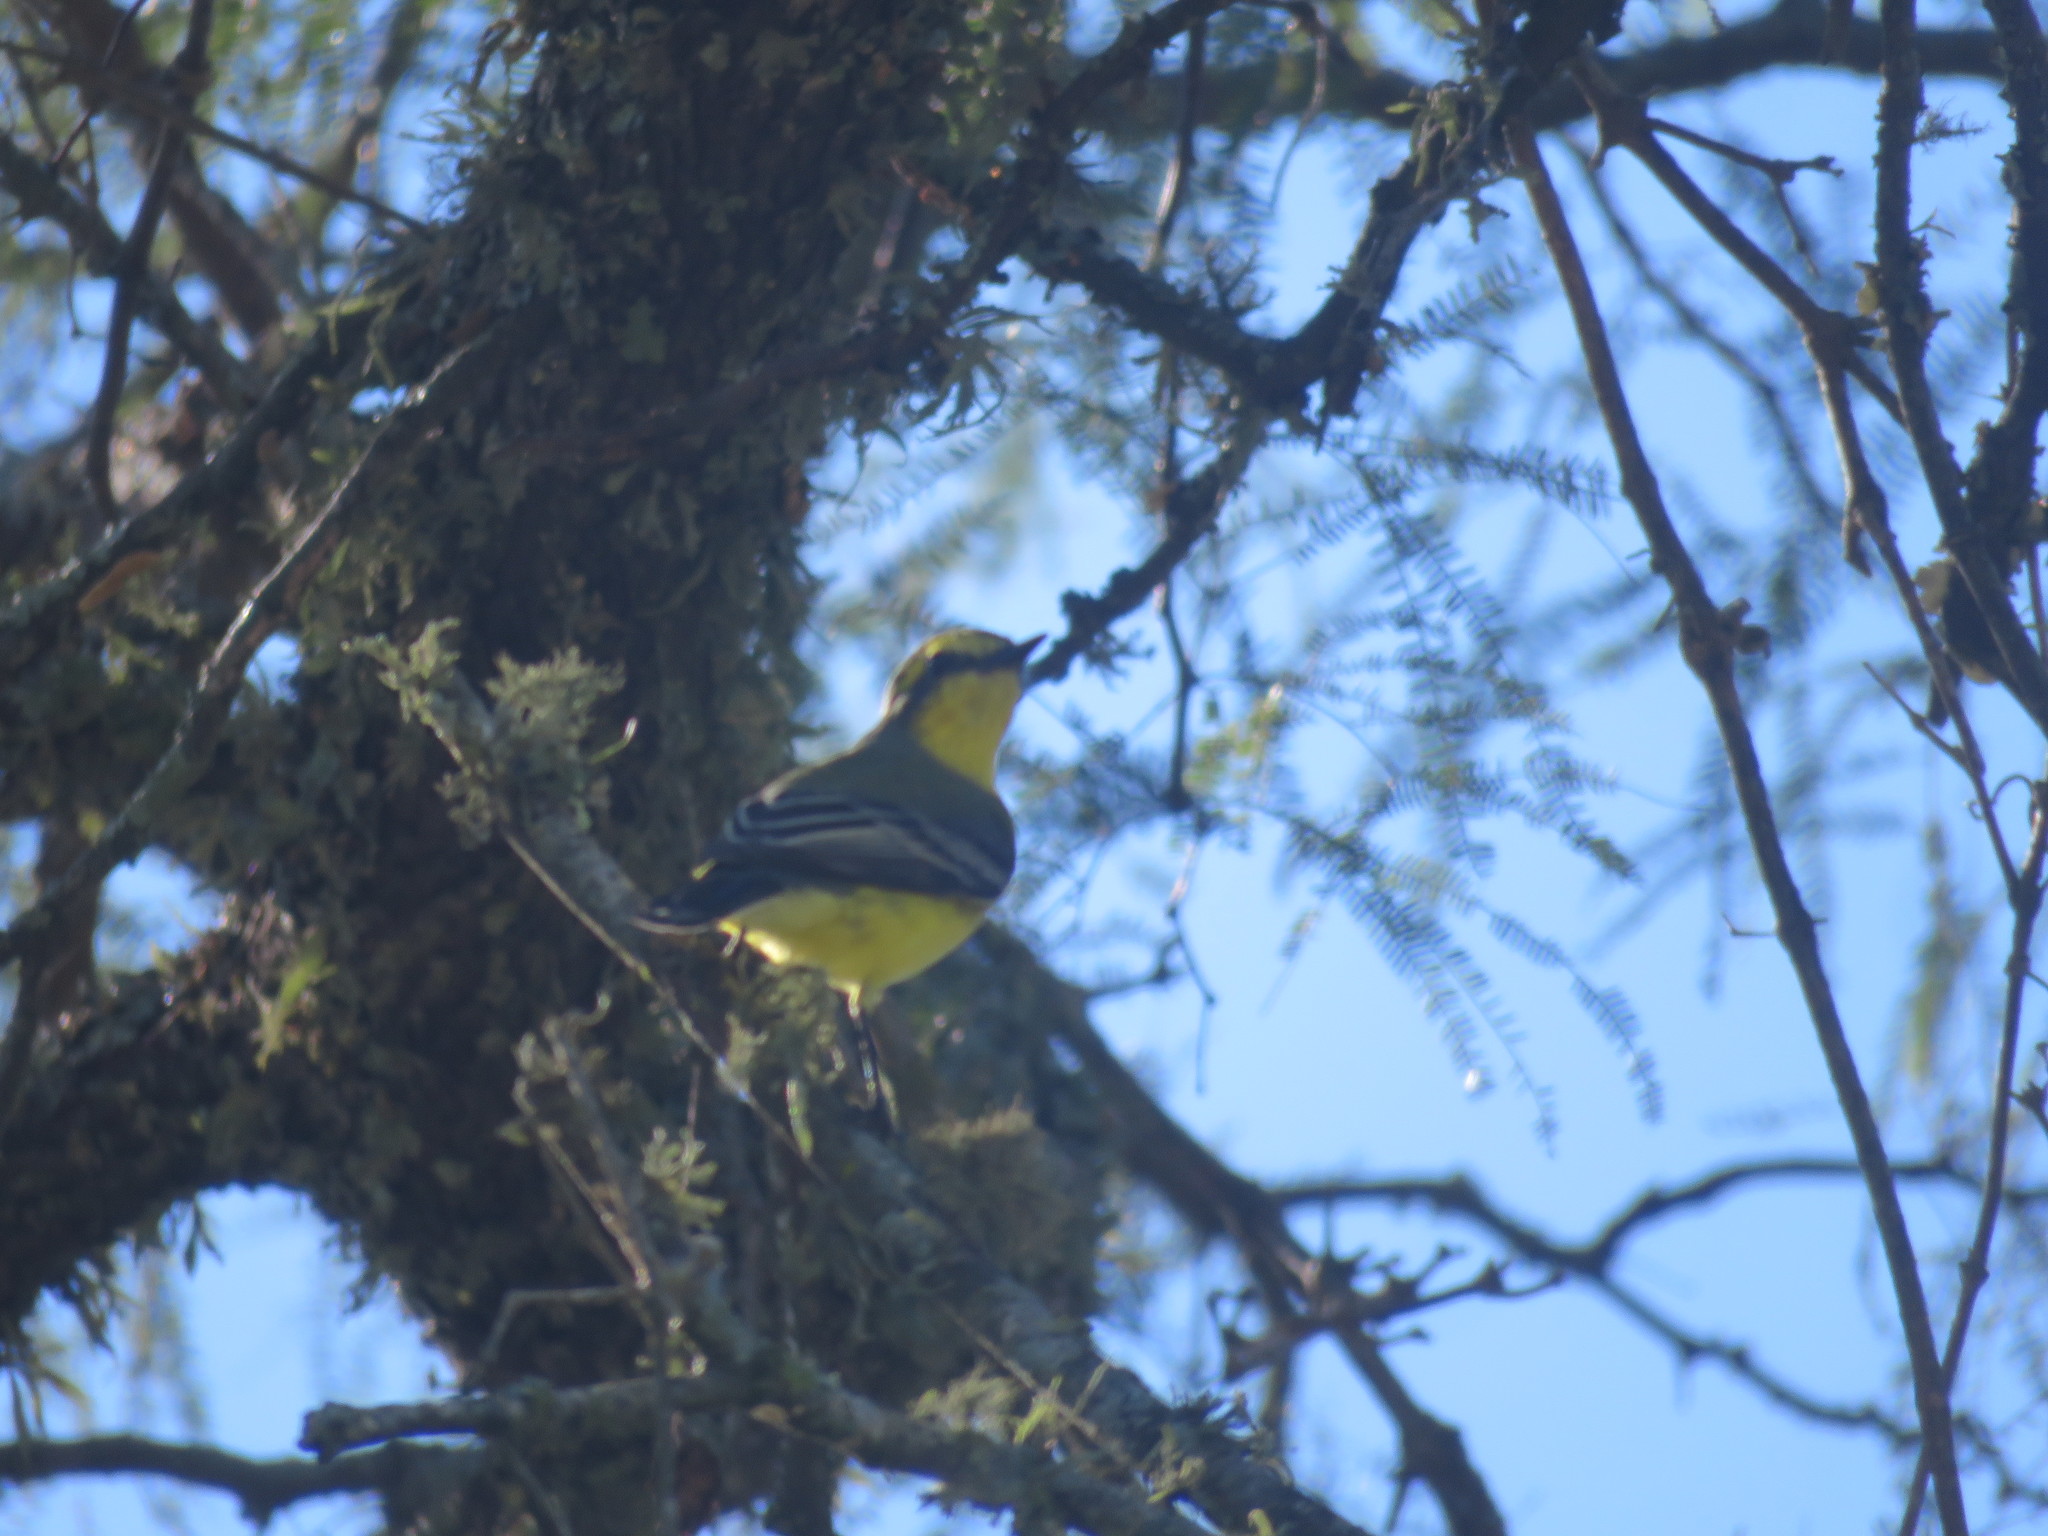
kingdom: Animalia
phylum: Chordata
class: Aves
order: Passeriformes
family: Tyrannidae
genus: Satrapa
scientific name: Satrapa icterophrys
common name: Yellow-browed tyrant
